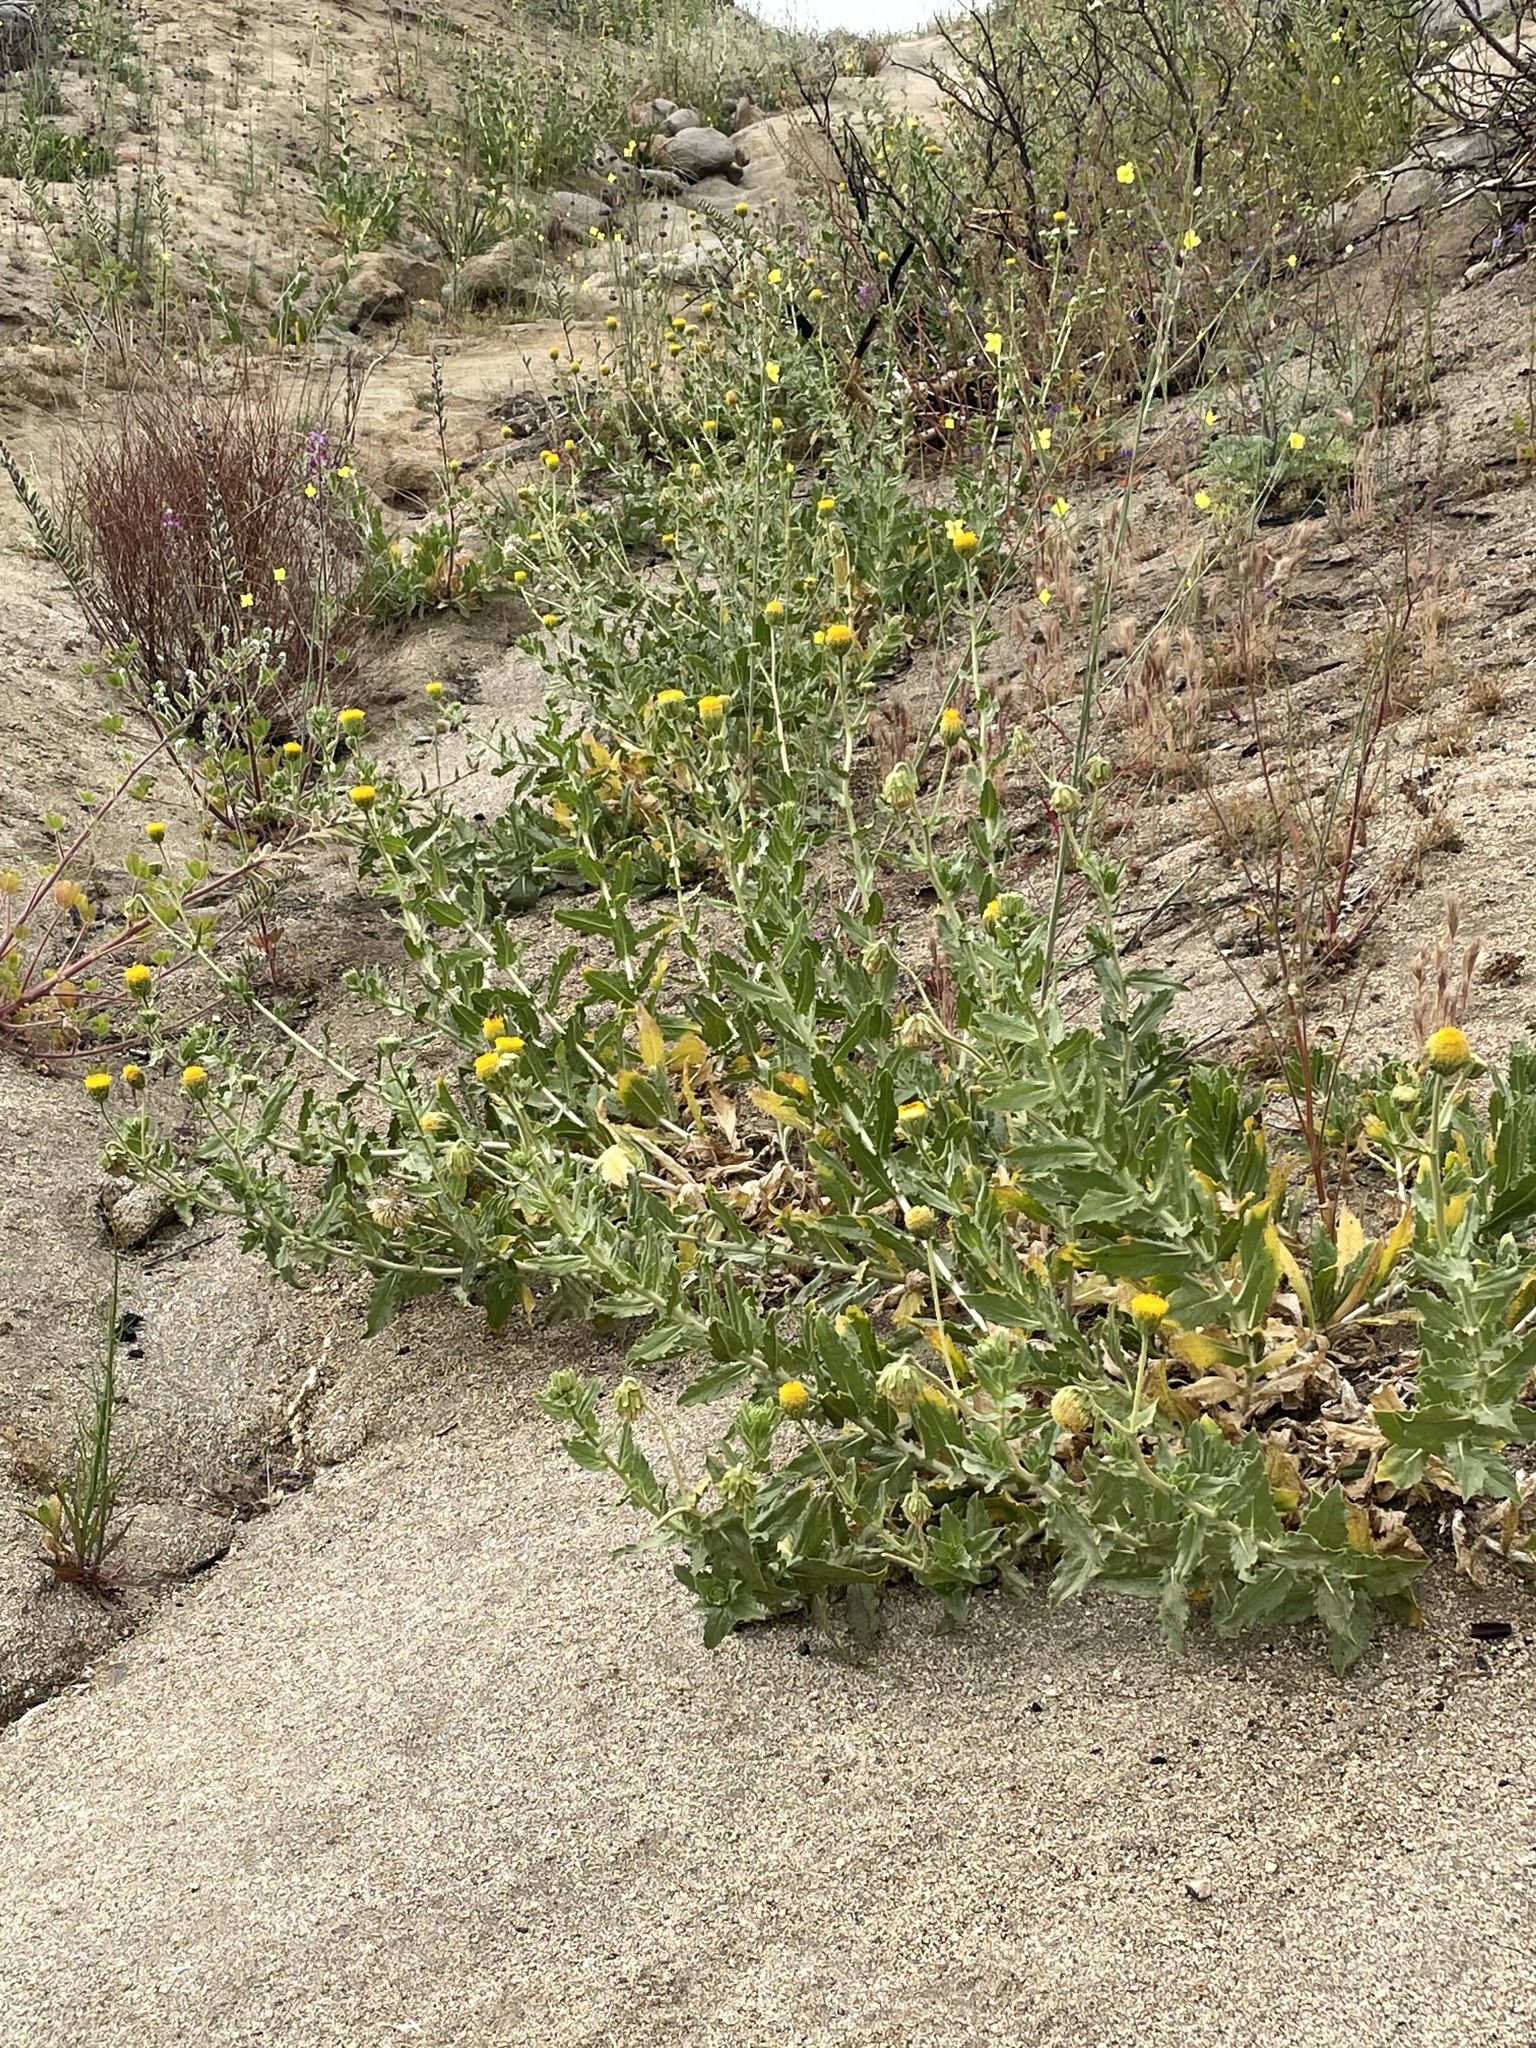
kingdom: Plantae
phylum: Tracheophyta
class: Magnoliopsida
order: Asterales
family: Asteraceae
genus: Geraea
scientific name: Geraea viscida
